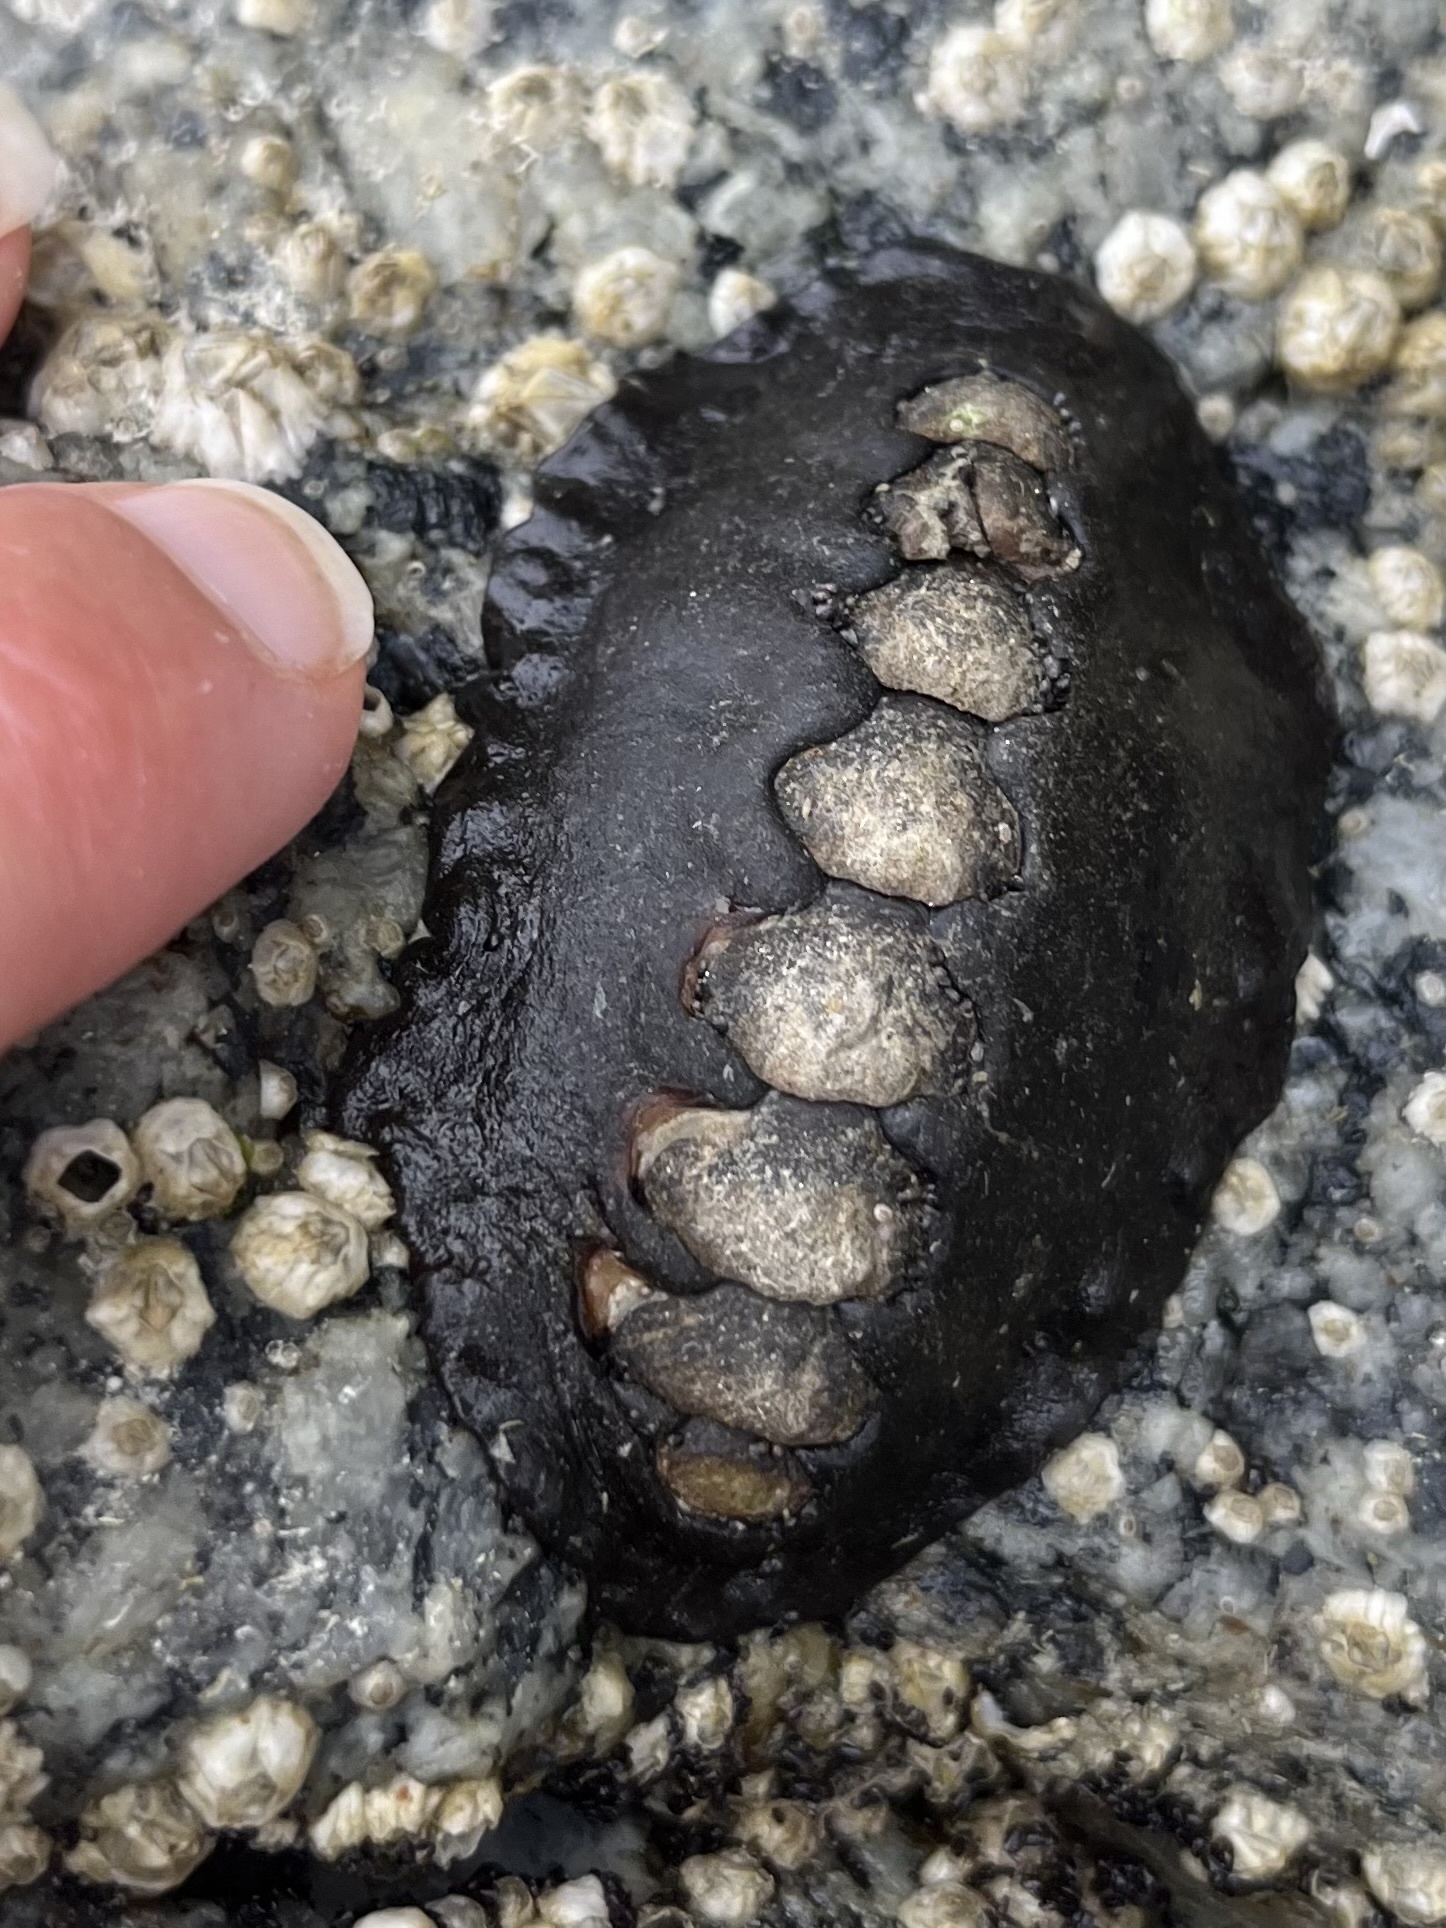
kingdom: Animalia
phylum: Mollusca
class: Polyplacophora
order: Chitonida
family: Mopaliidae
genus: Katharina
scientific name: Katharina tunicata
